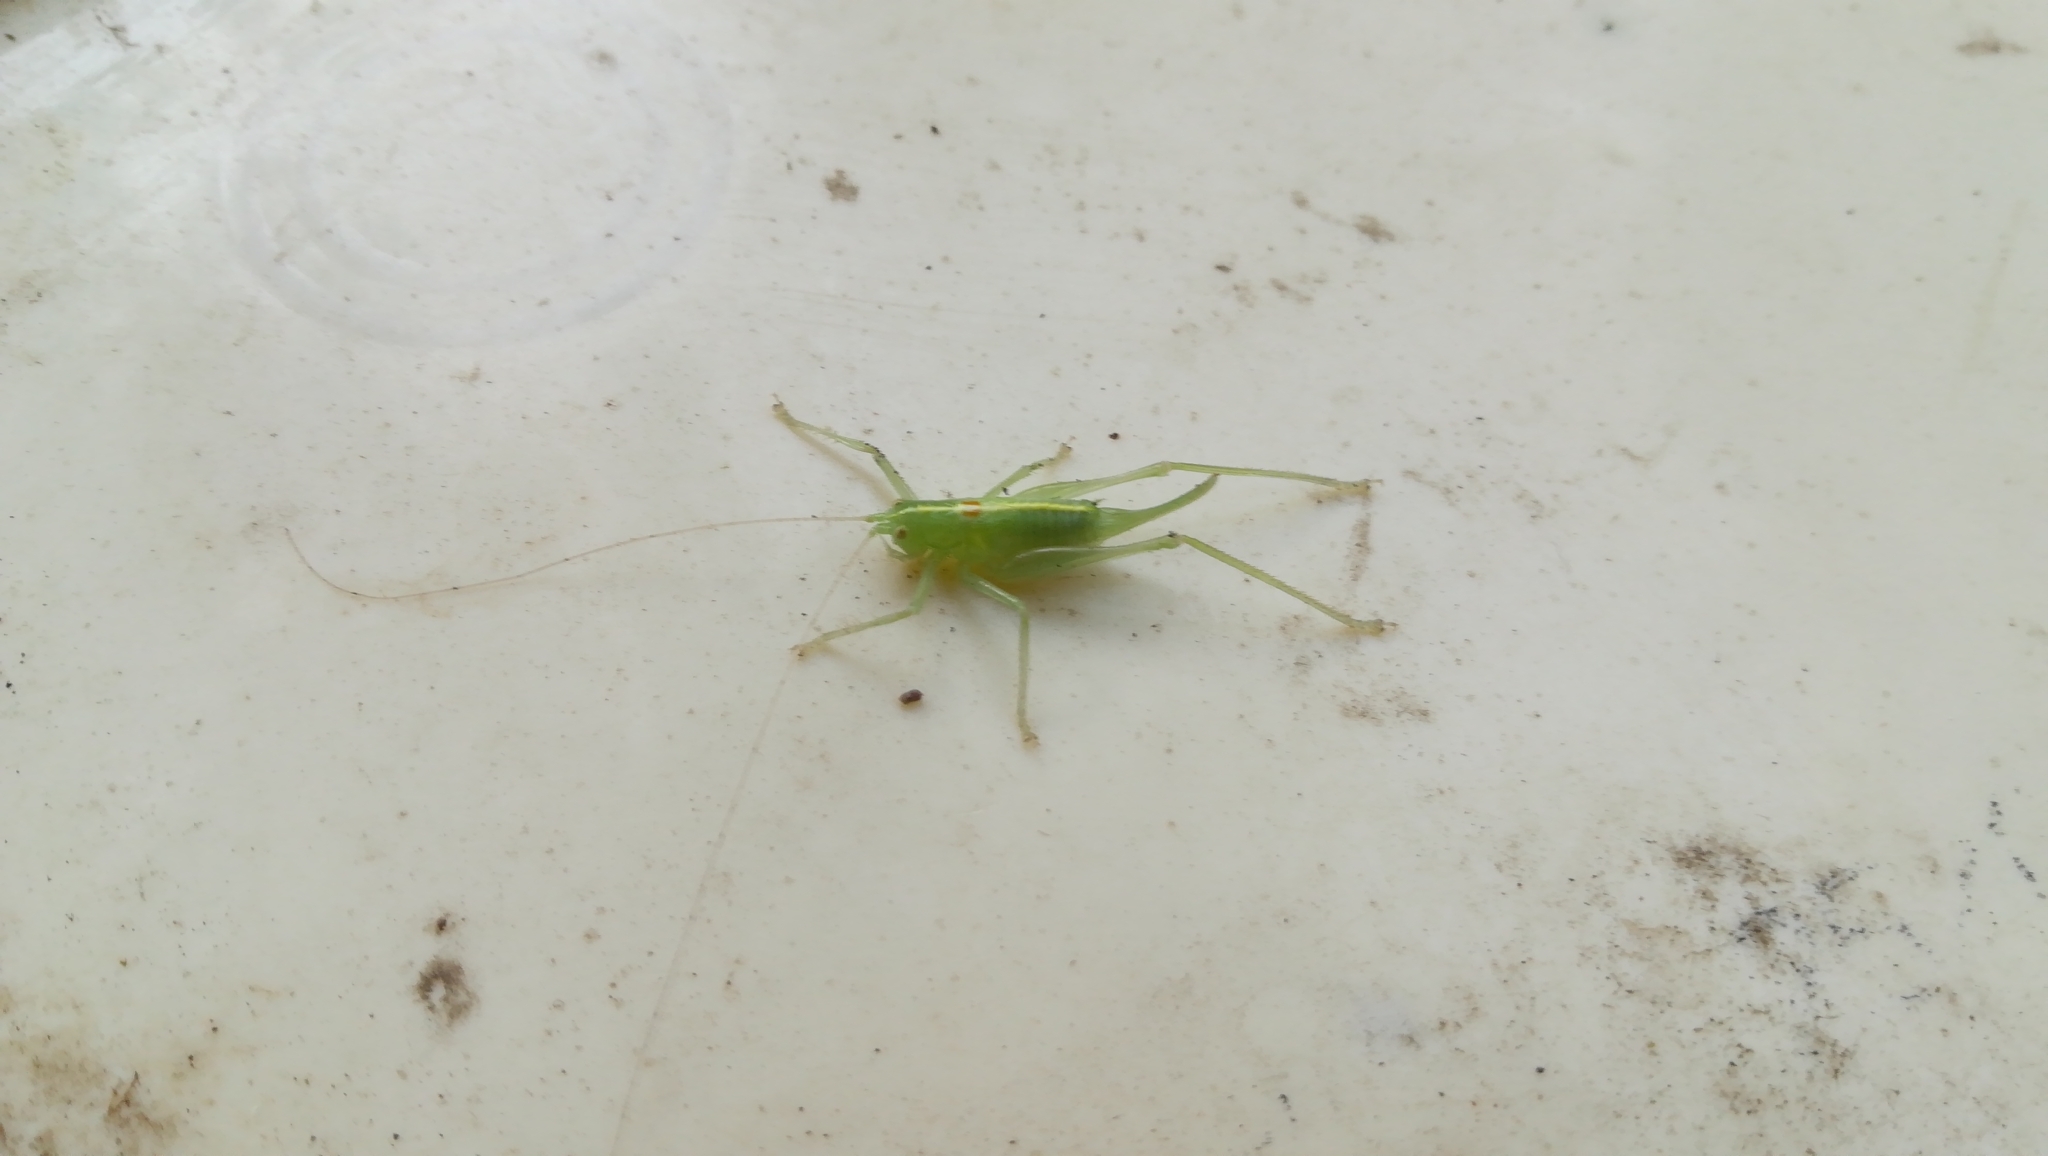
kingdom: Animalia
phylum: Arthropoda
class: Insecta
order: Orthoptera
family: Tettigoniidae
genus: Meconema
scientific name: Meconema meridionale
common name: Southern oak bush-cricket
